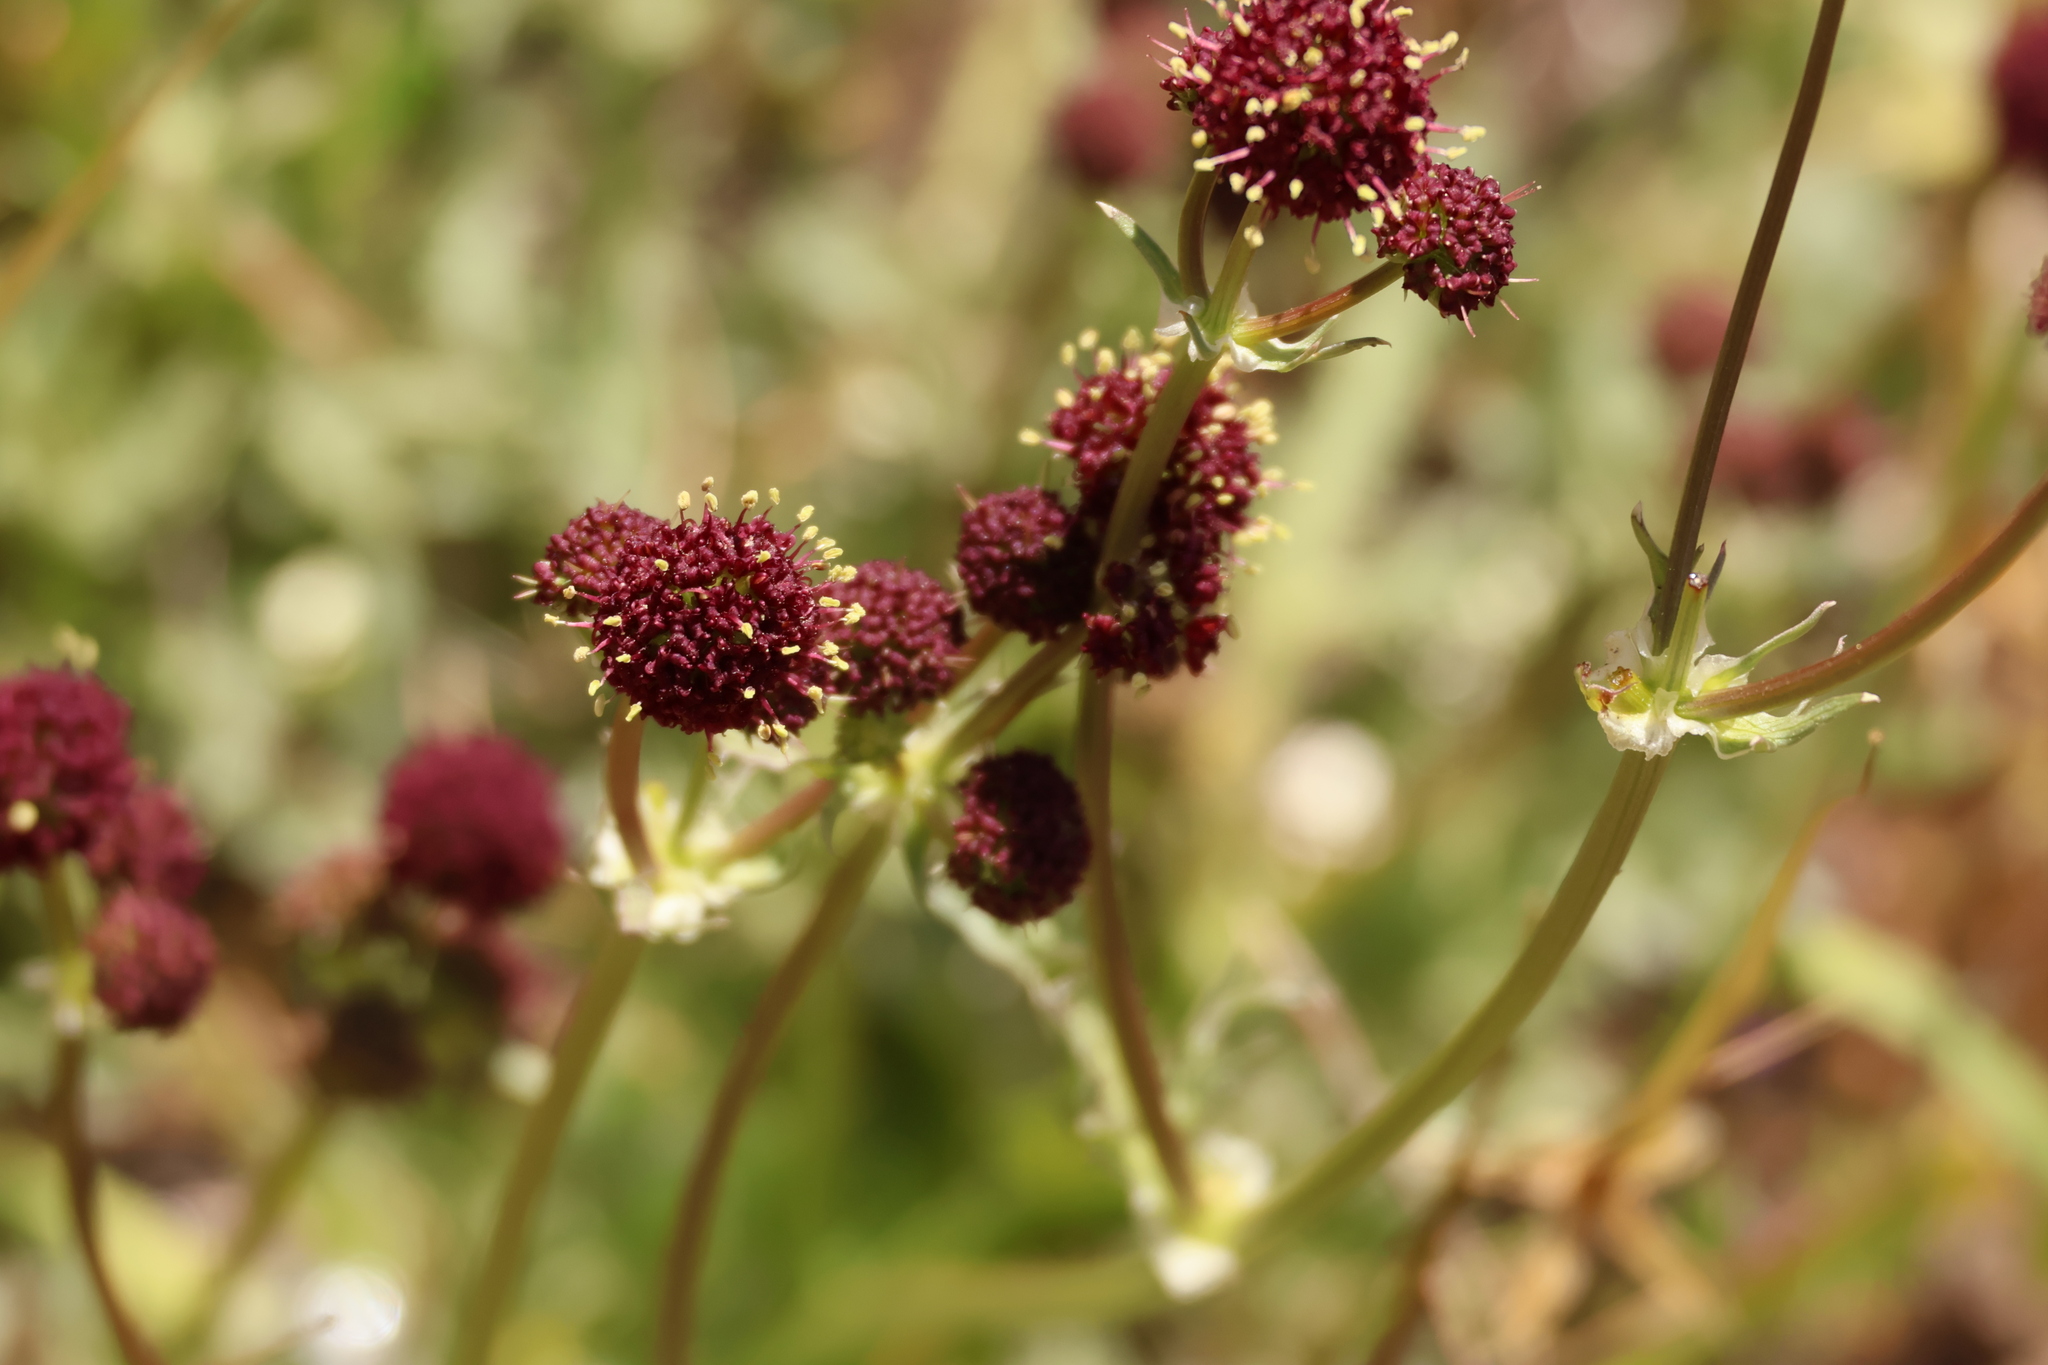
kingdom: Plantae
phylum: Tracheophyta
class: Magnoliopsida
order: Apiales
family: Apiaceae
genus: Sanicula
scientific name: Sanicula bipinnatifida
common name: Shoe-buttons
